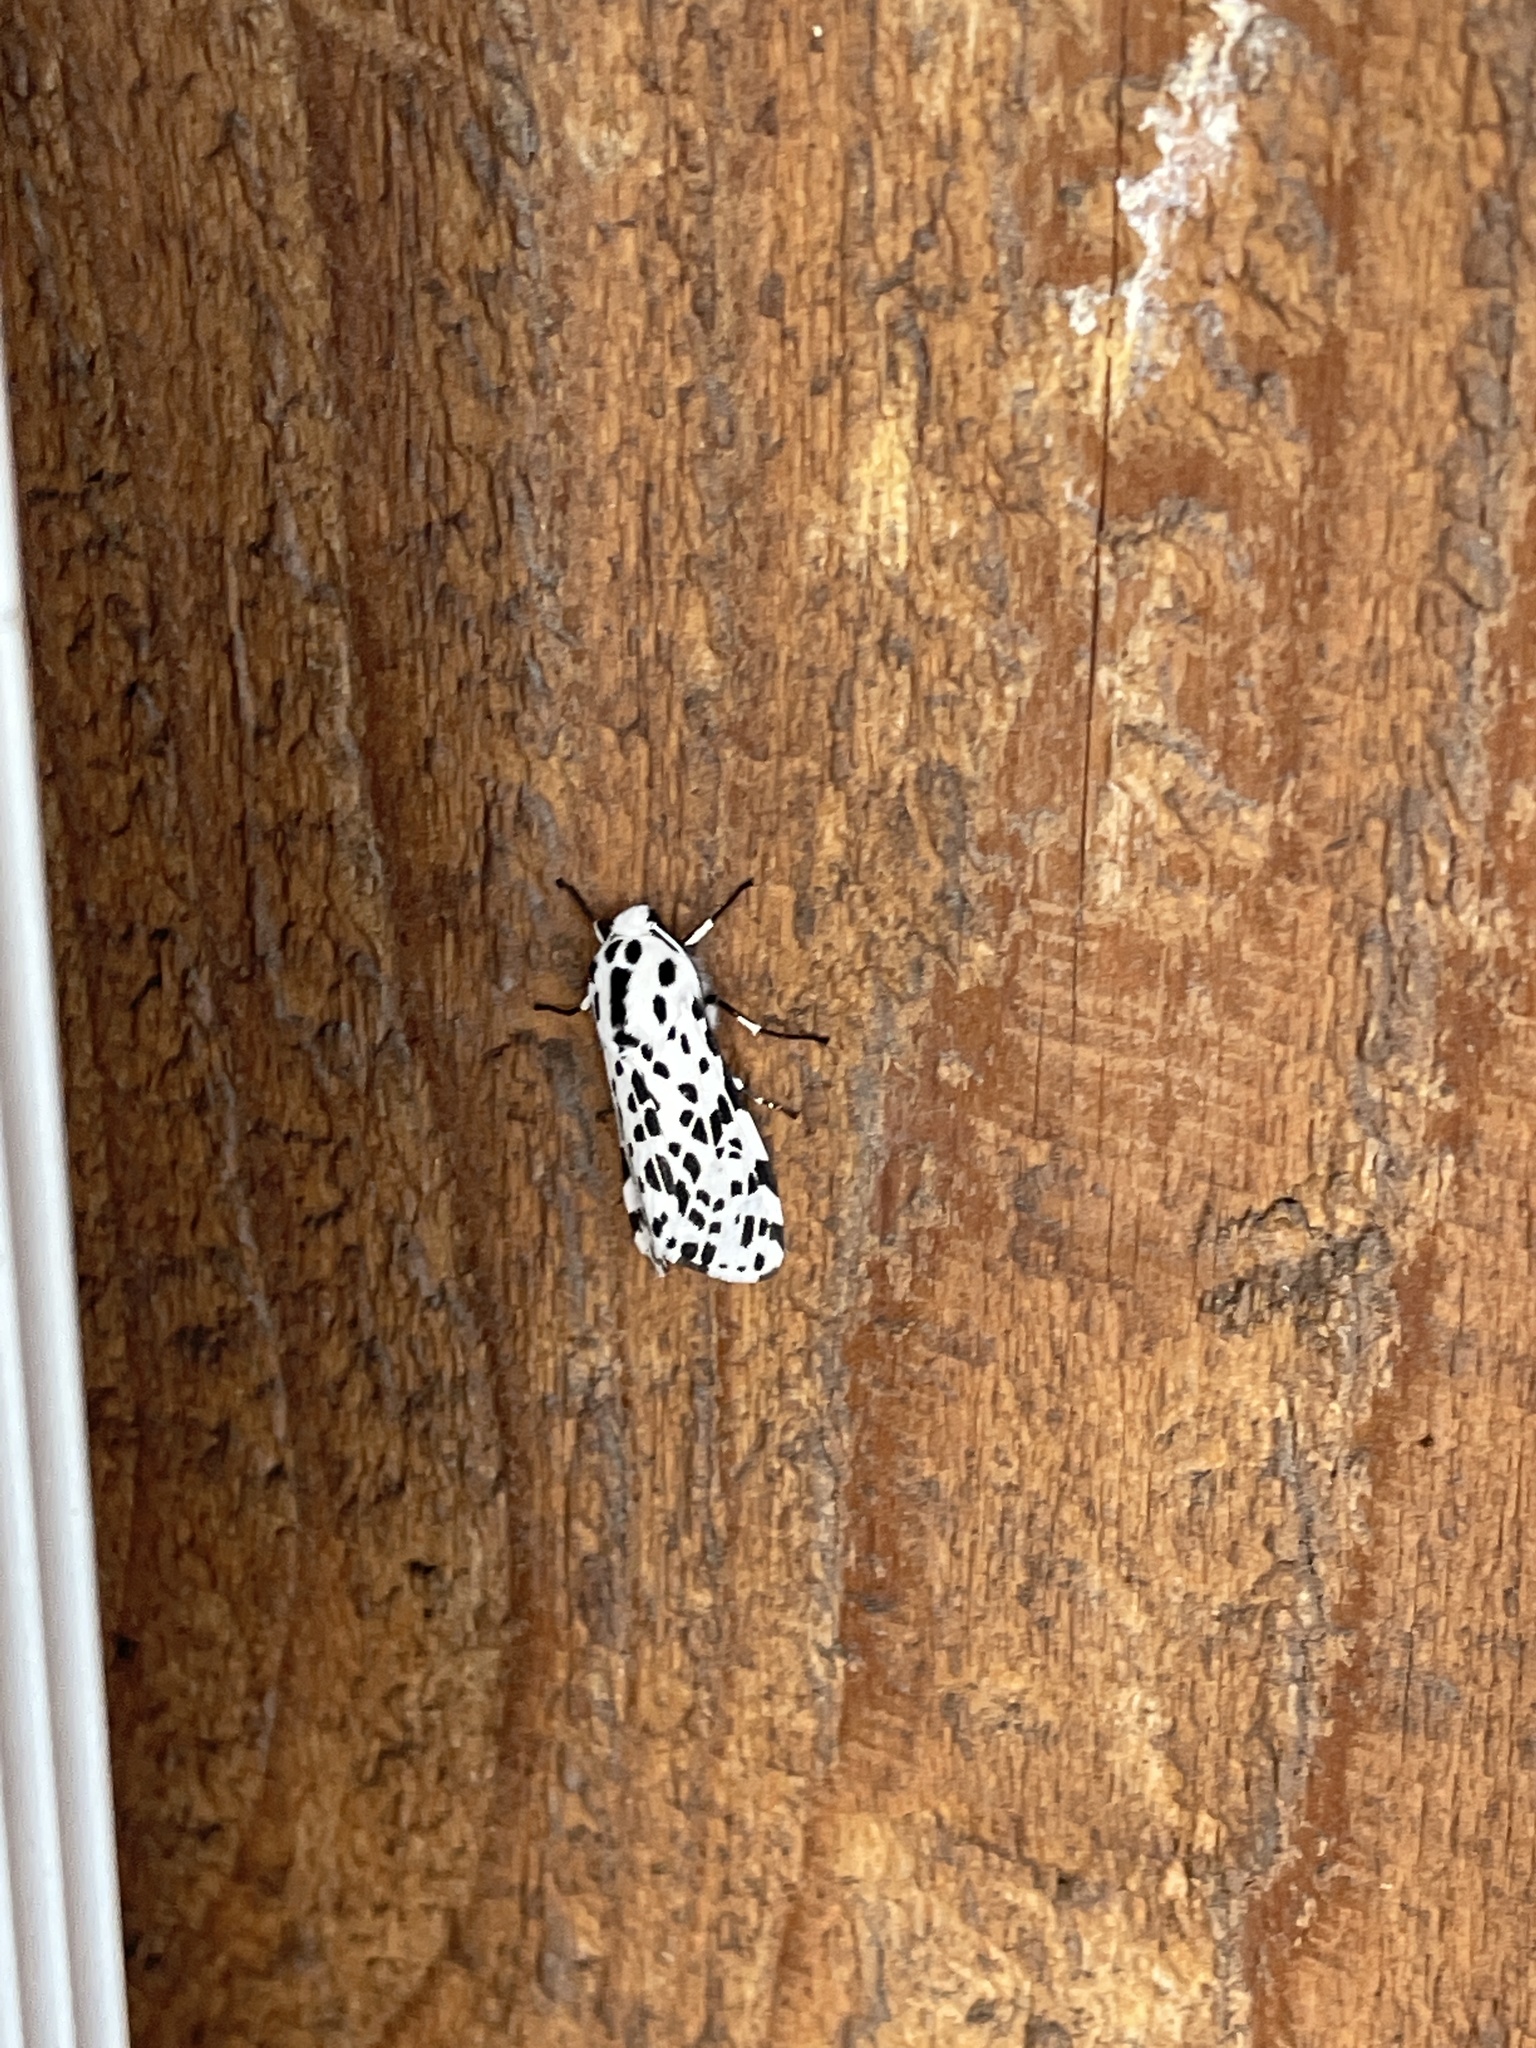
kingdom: Animalia
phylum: Arthropoda
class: Insecta
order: Lepidoptera
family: Erebidae
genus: Hypercompe
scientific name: Hypercompe permaculata
